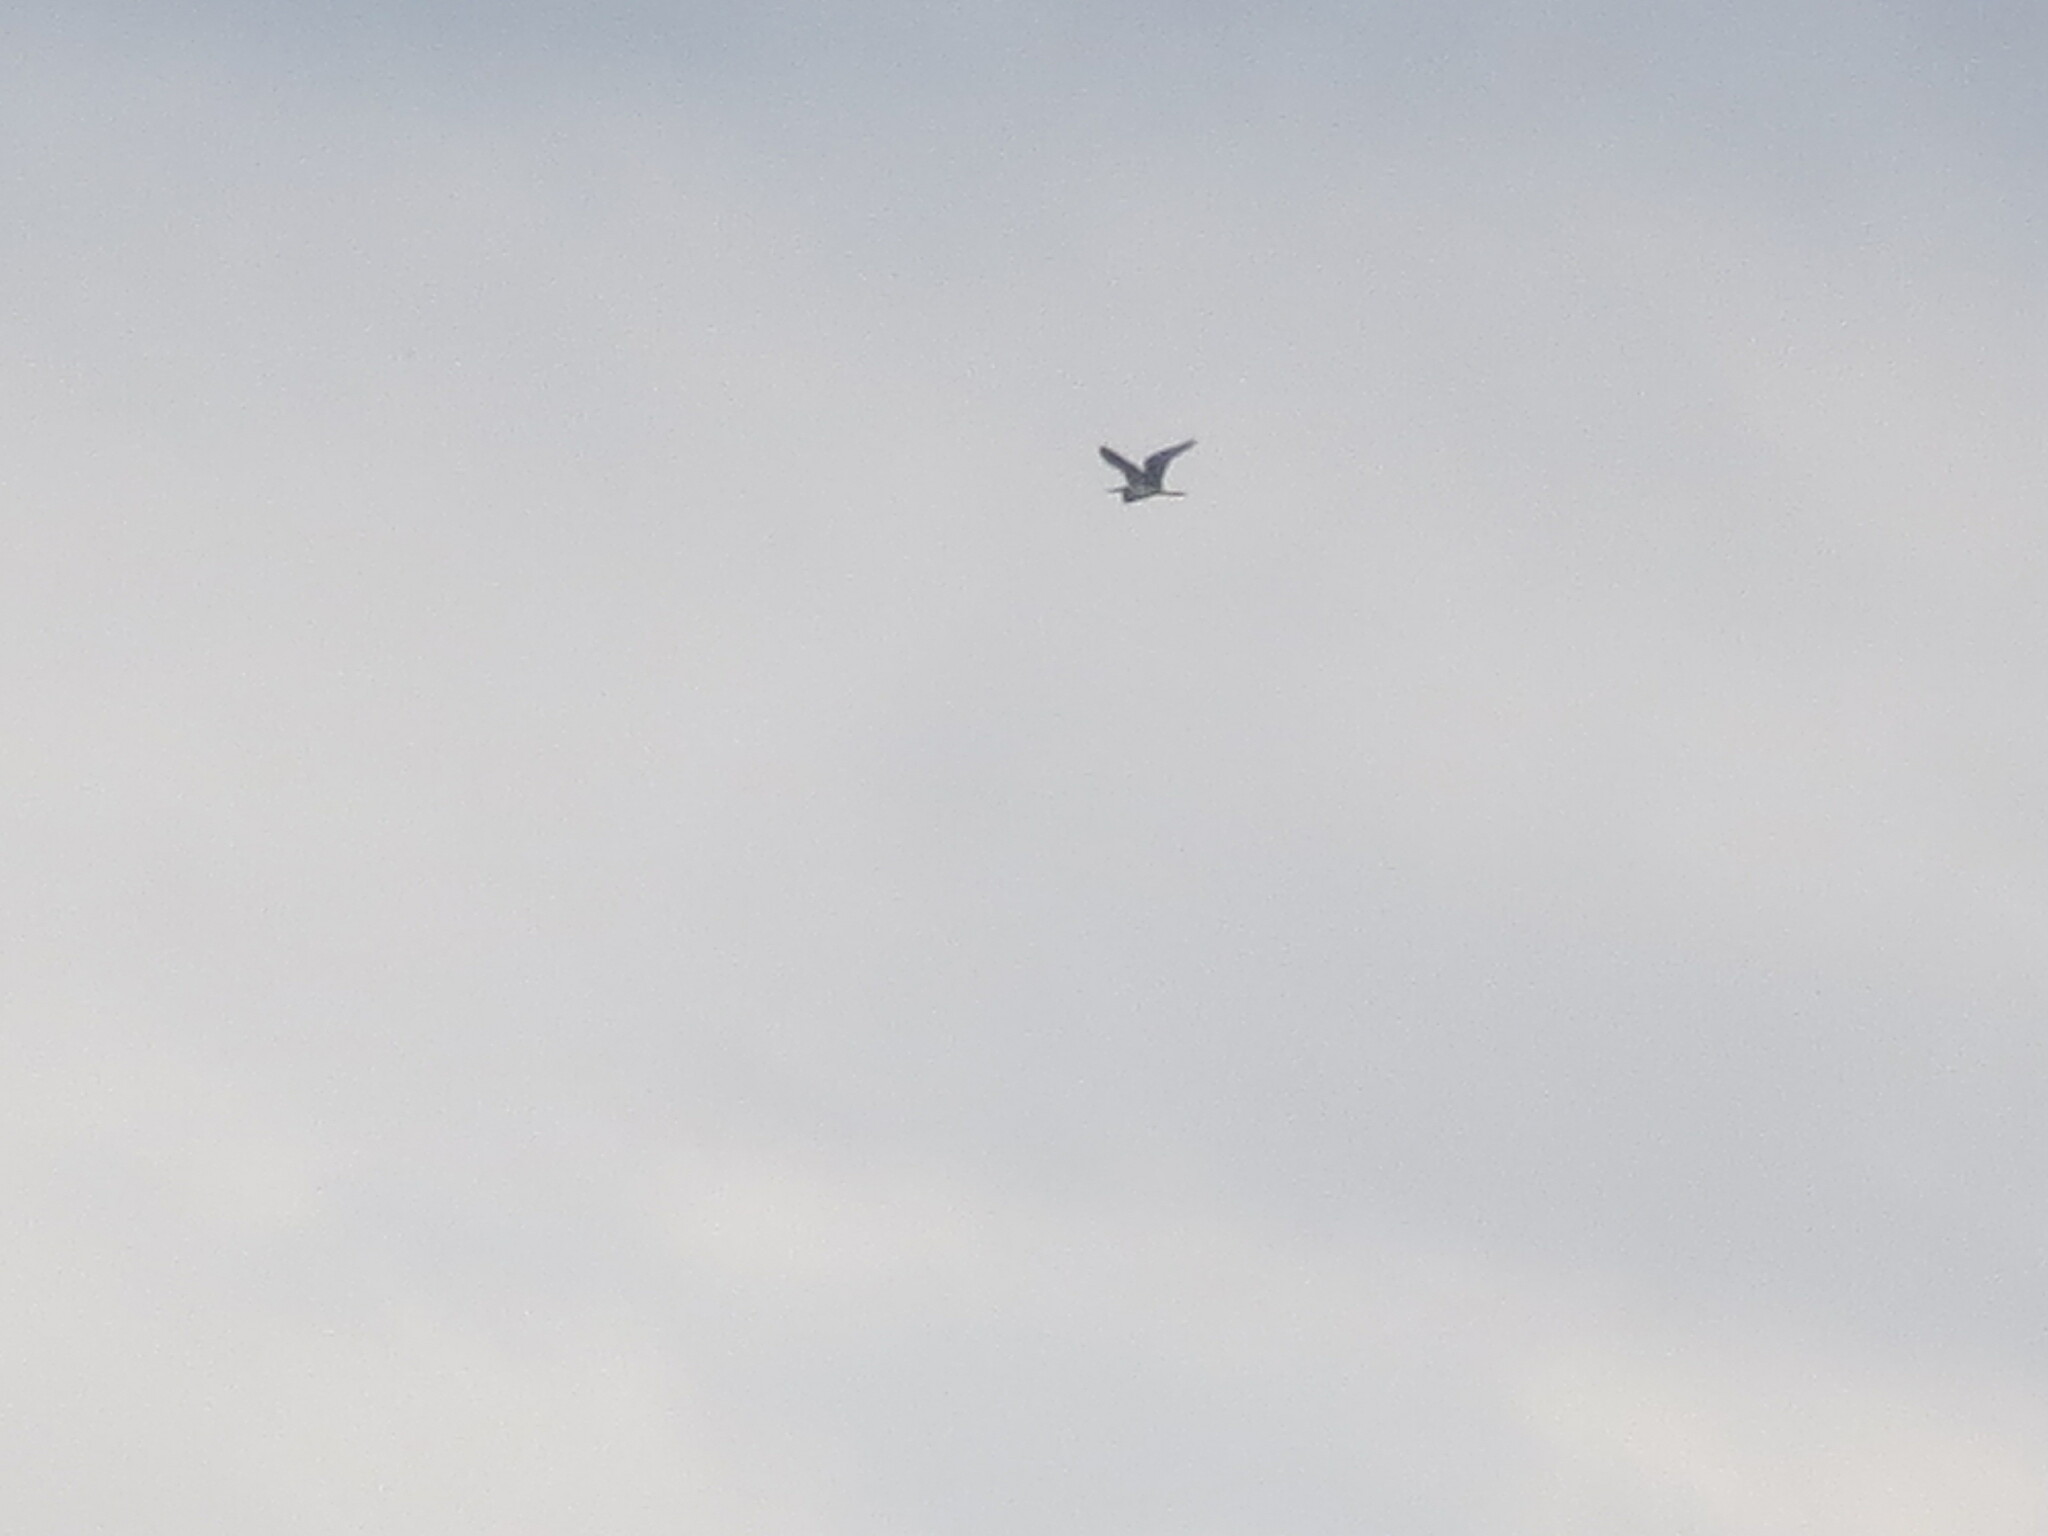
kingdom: Animalia
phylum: Chordata
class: Aves
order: Pelecaniformes
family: Ardeidae
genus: Egretta
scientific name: Egretta tricolor
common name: Tricolored heron
